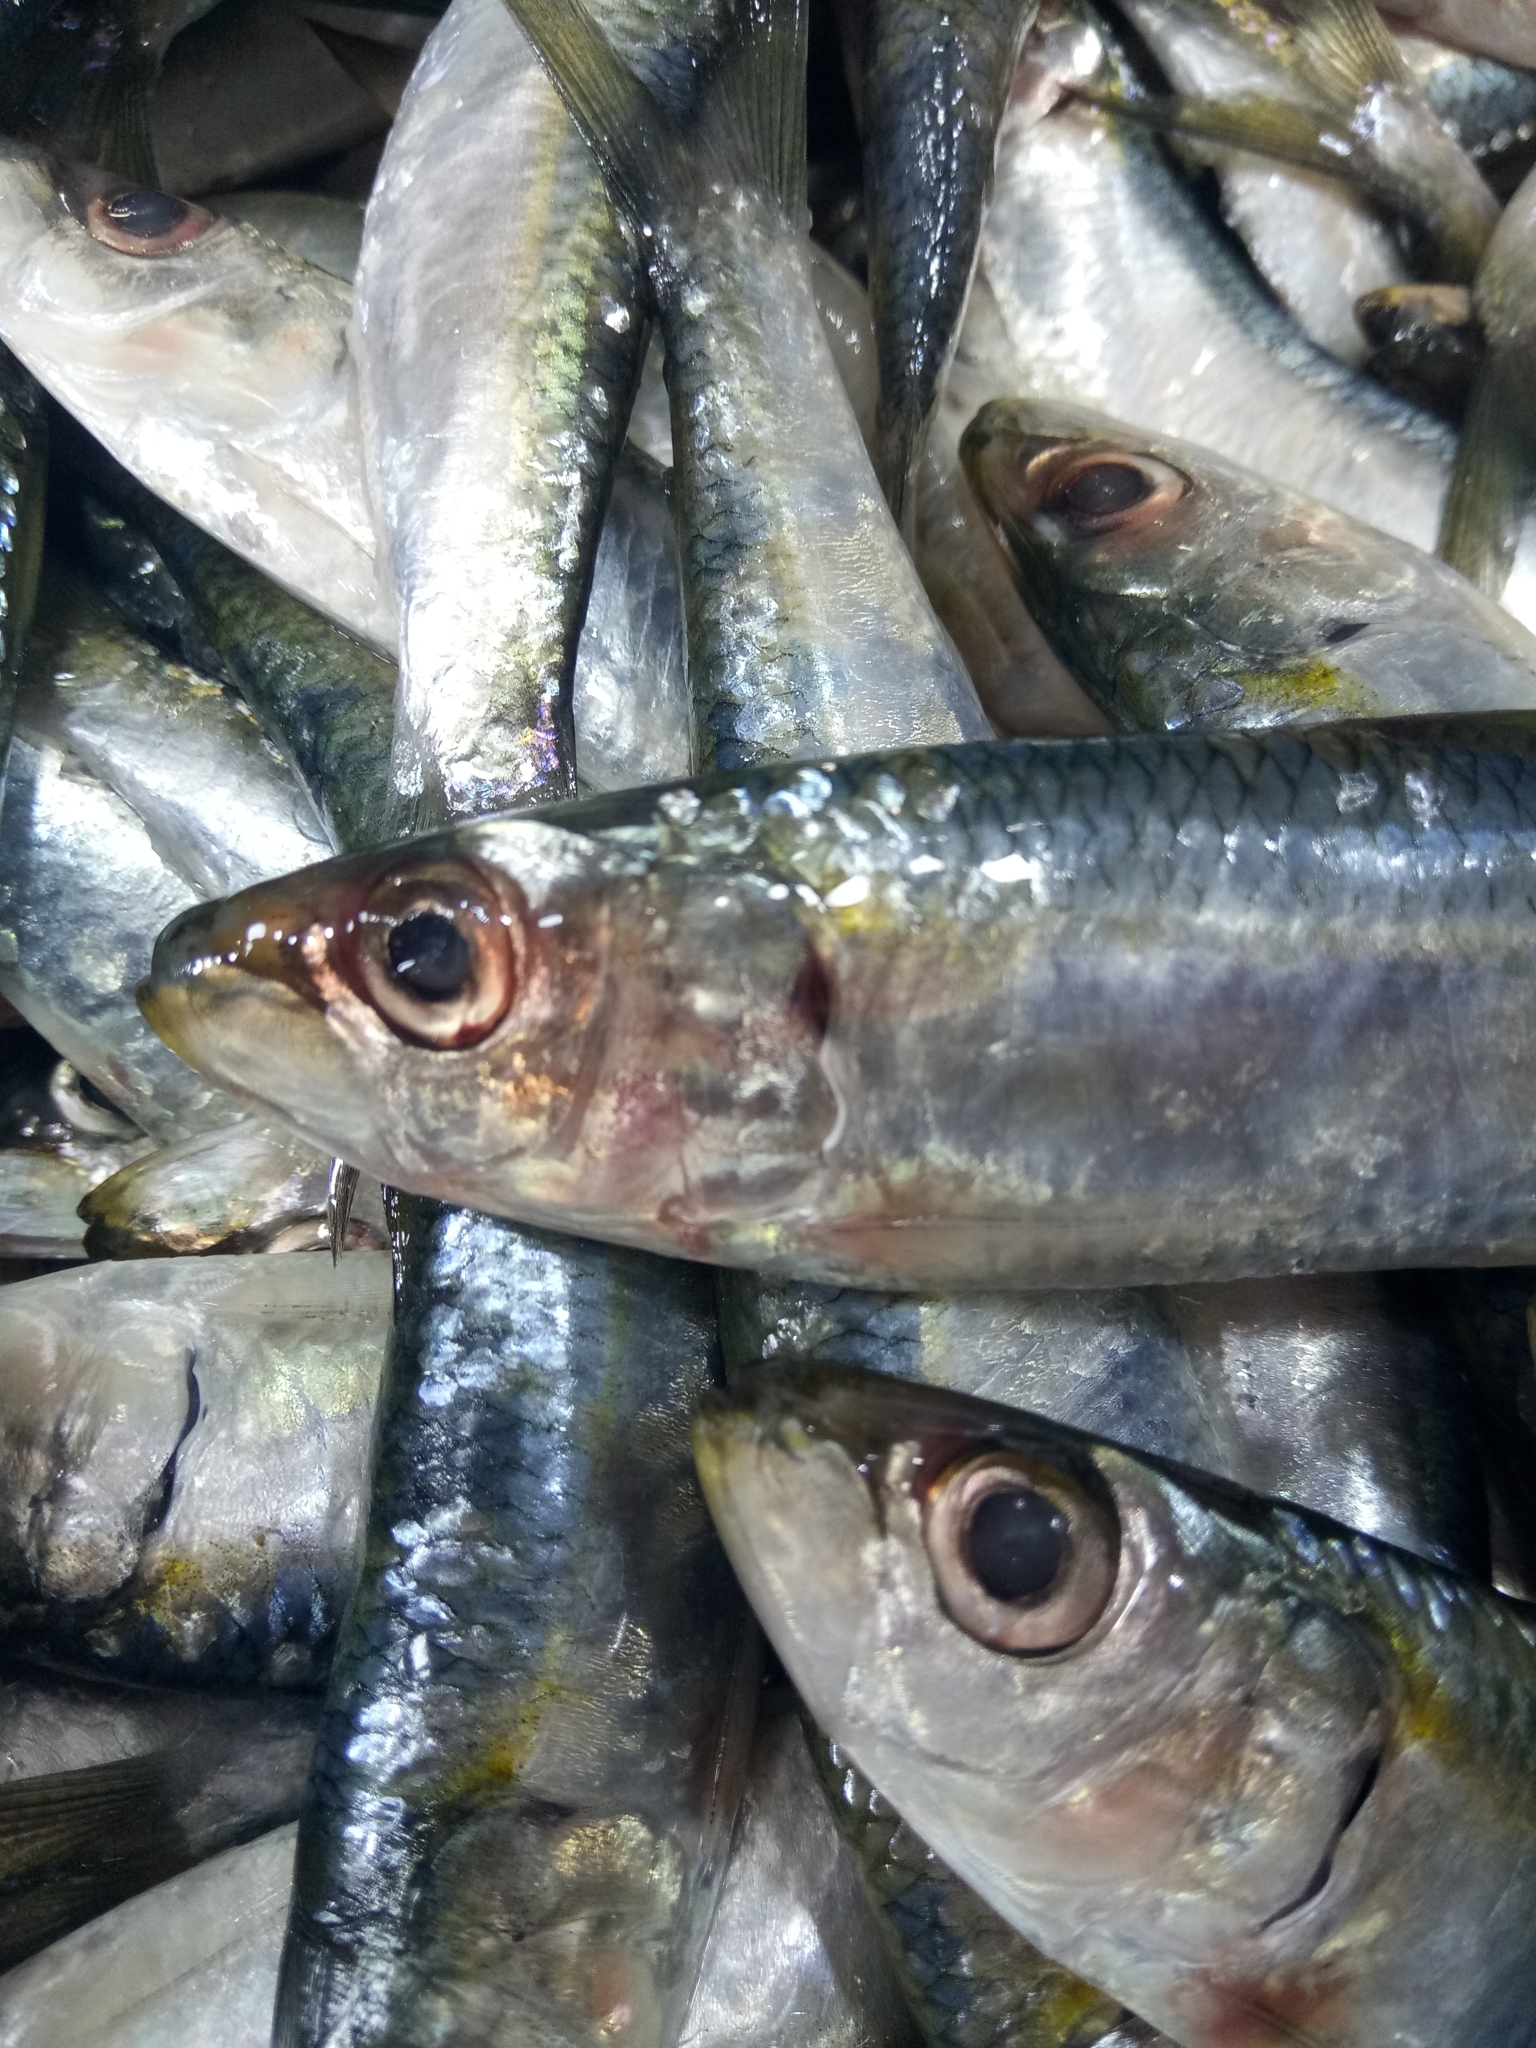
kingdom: Animalia
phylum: Chordata
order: Clupeiformes
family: Clupeidae
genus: Sardinella
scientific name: Sardinella aurita
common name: Round sardinella
